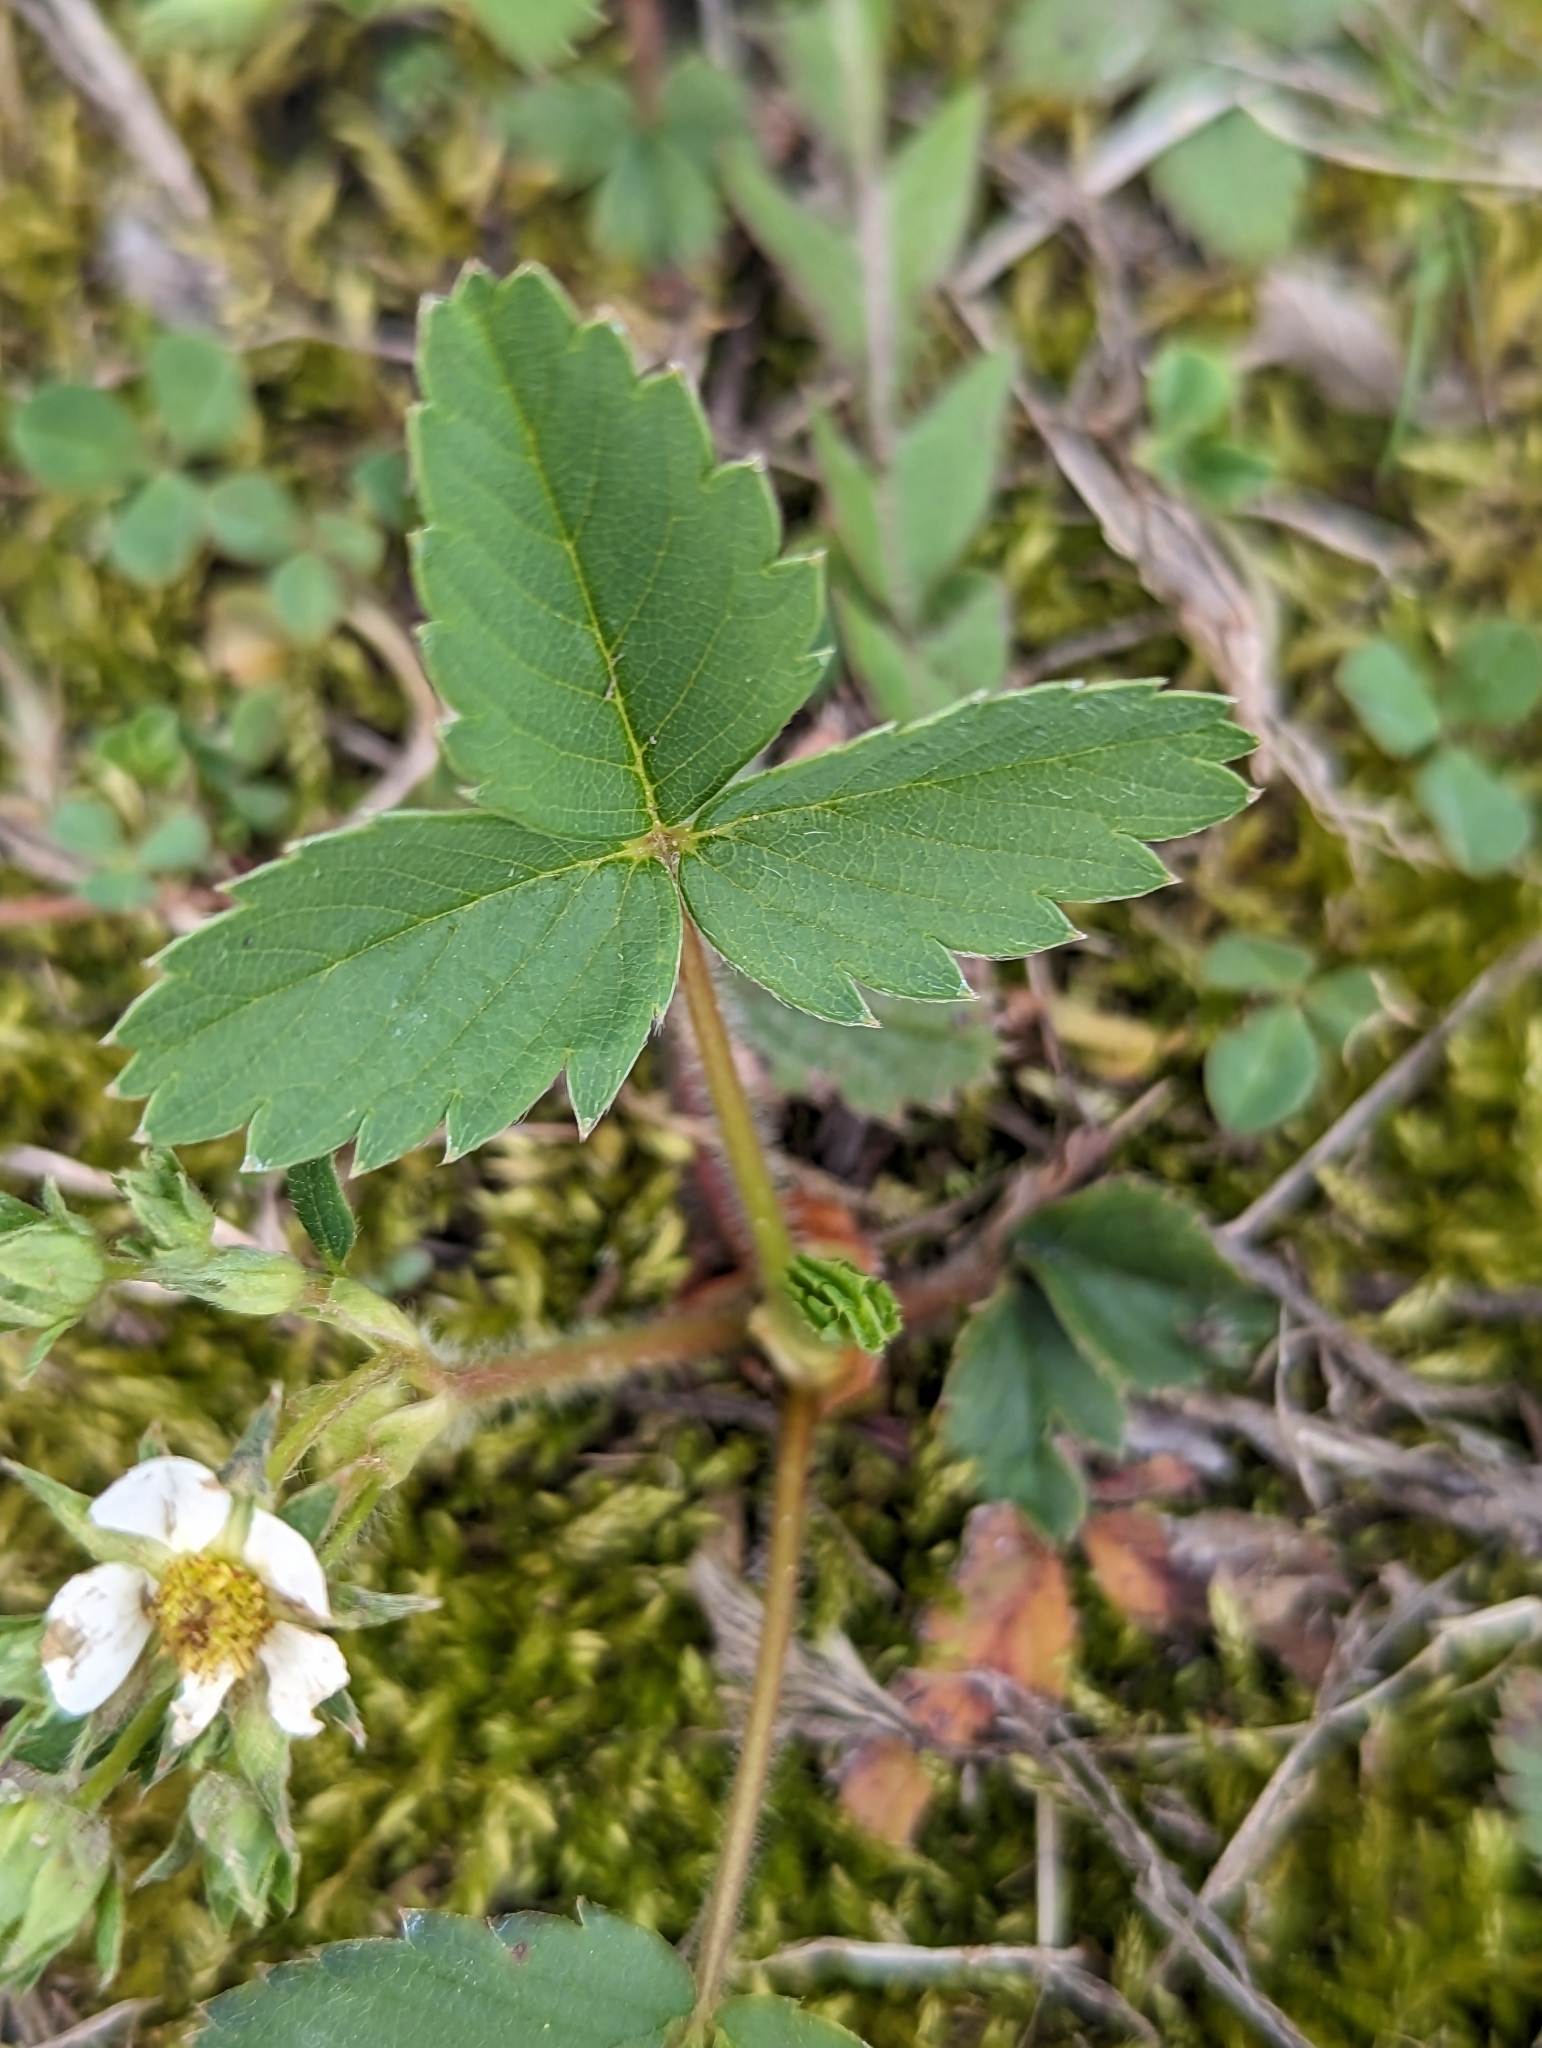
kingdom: Plantae
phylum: Tracheophyta
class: Magnoliopsida
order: Rosales
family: Rosaceae
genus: Fragaria
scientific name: Fragaria virginiana
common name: Thickleaved wild strawberry
